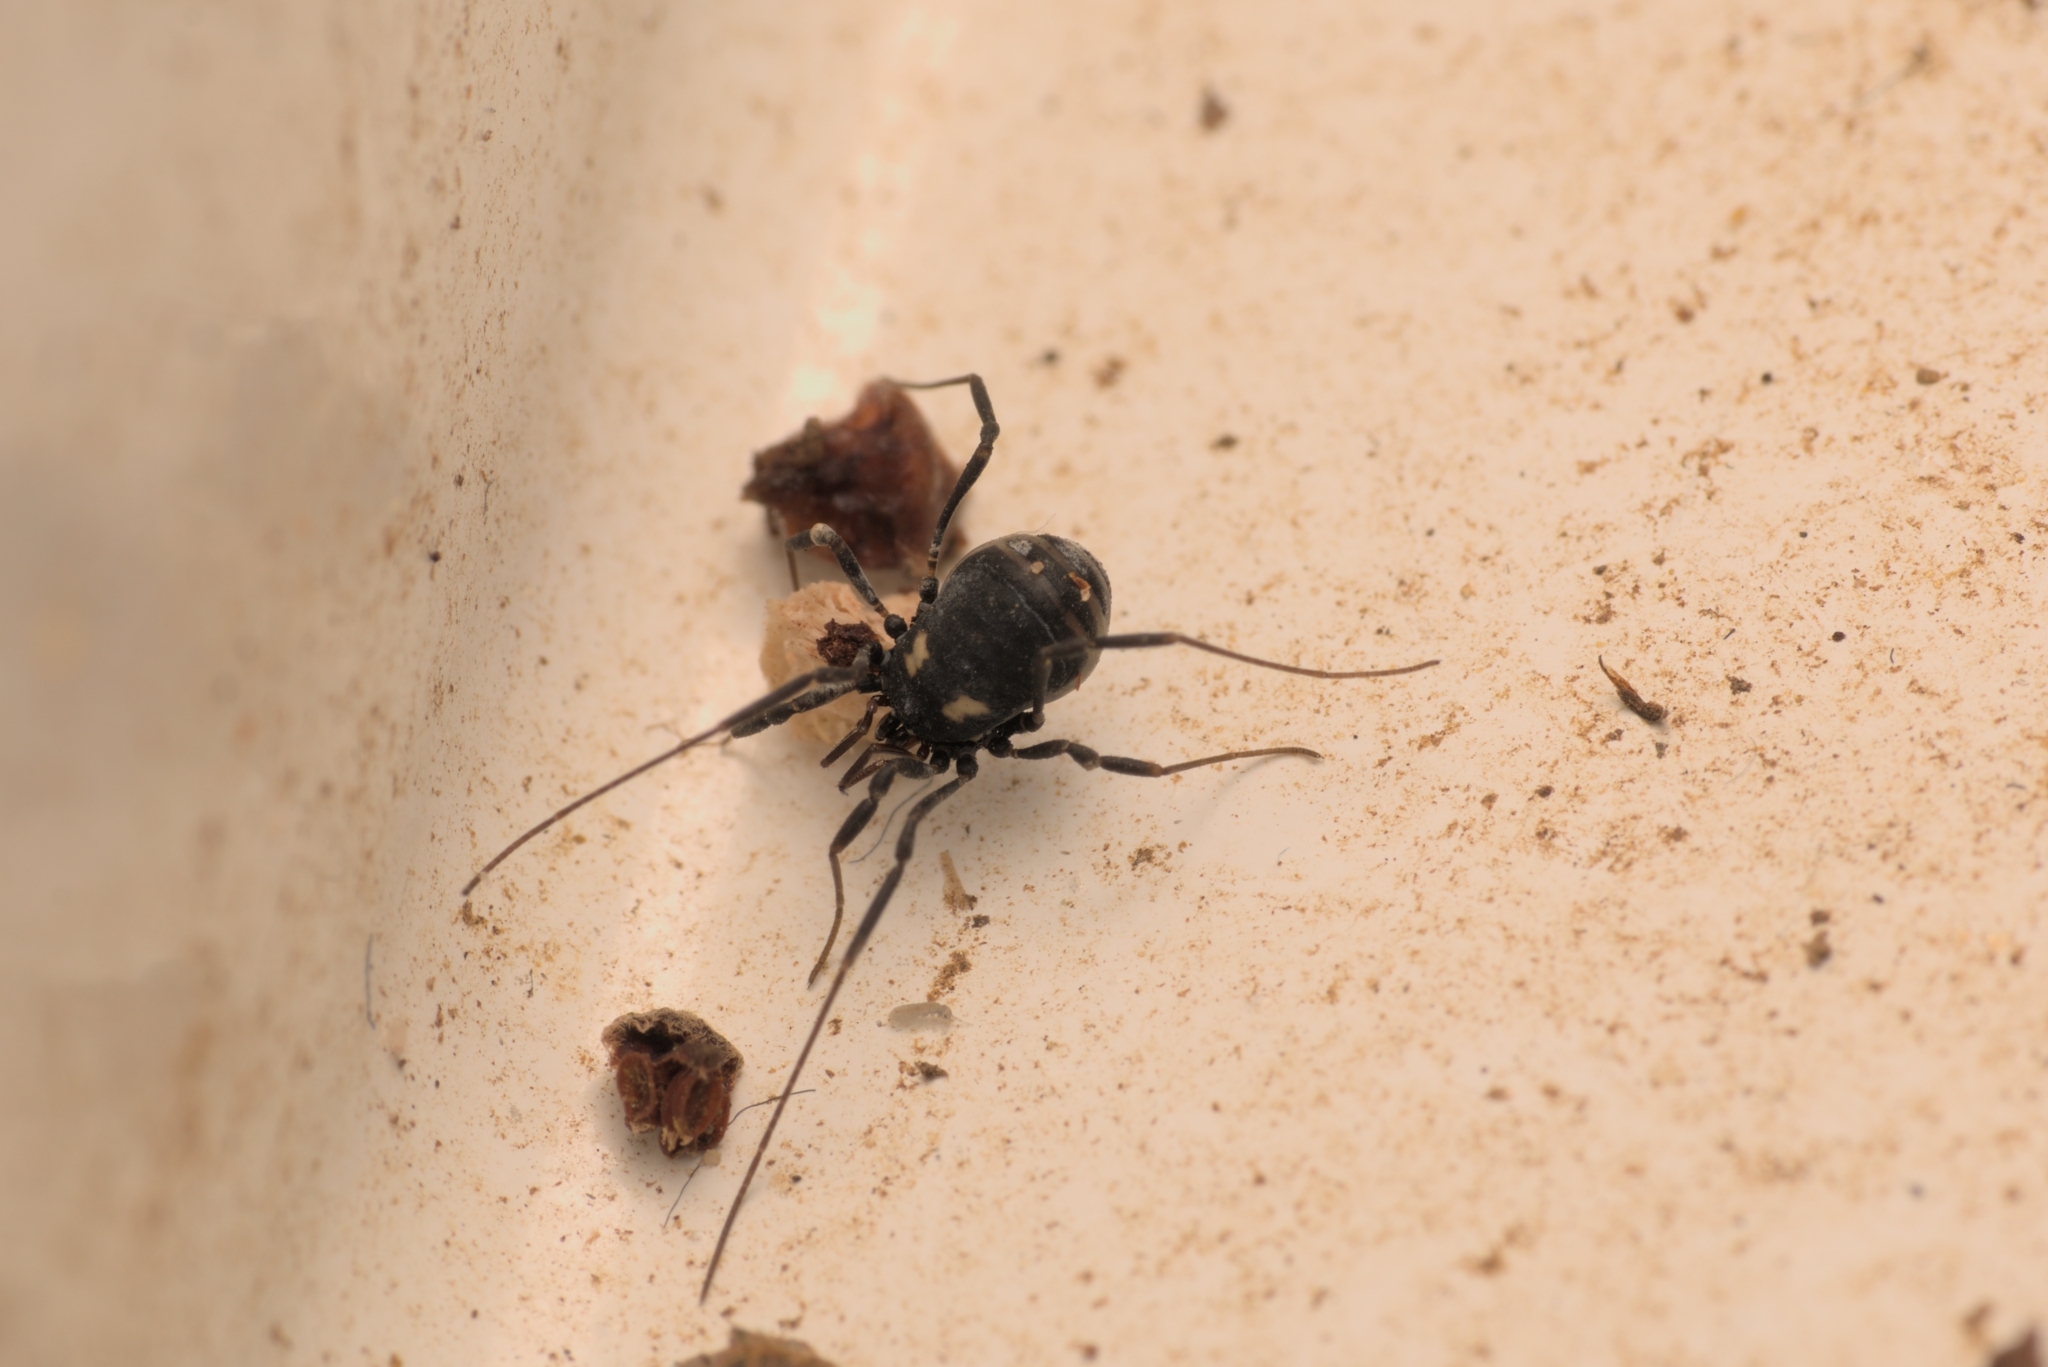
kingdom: Animalia
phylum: Arthropoda
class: Arachnida
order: Opiliones
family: Nemastomatidae
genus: Nemastoma
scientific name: Nemastoma bimaculatum
